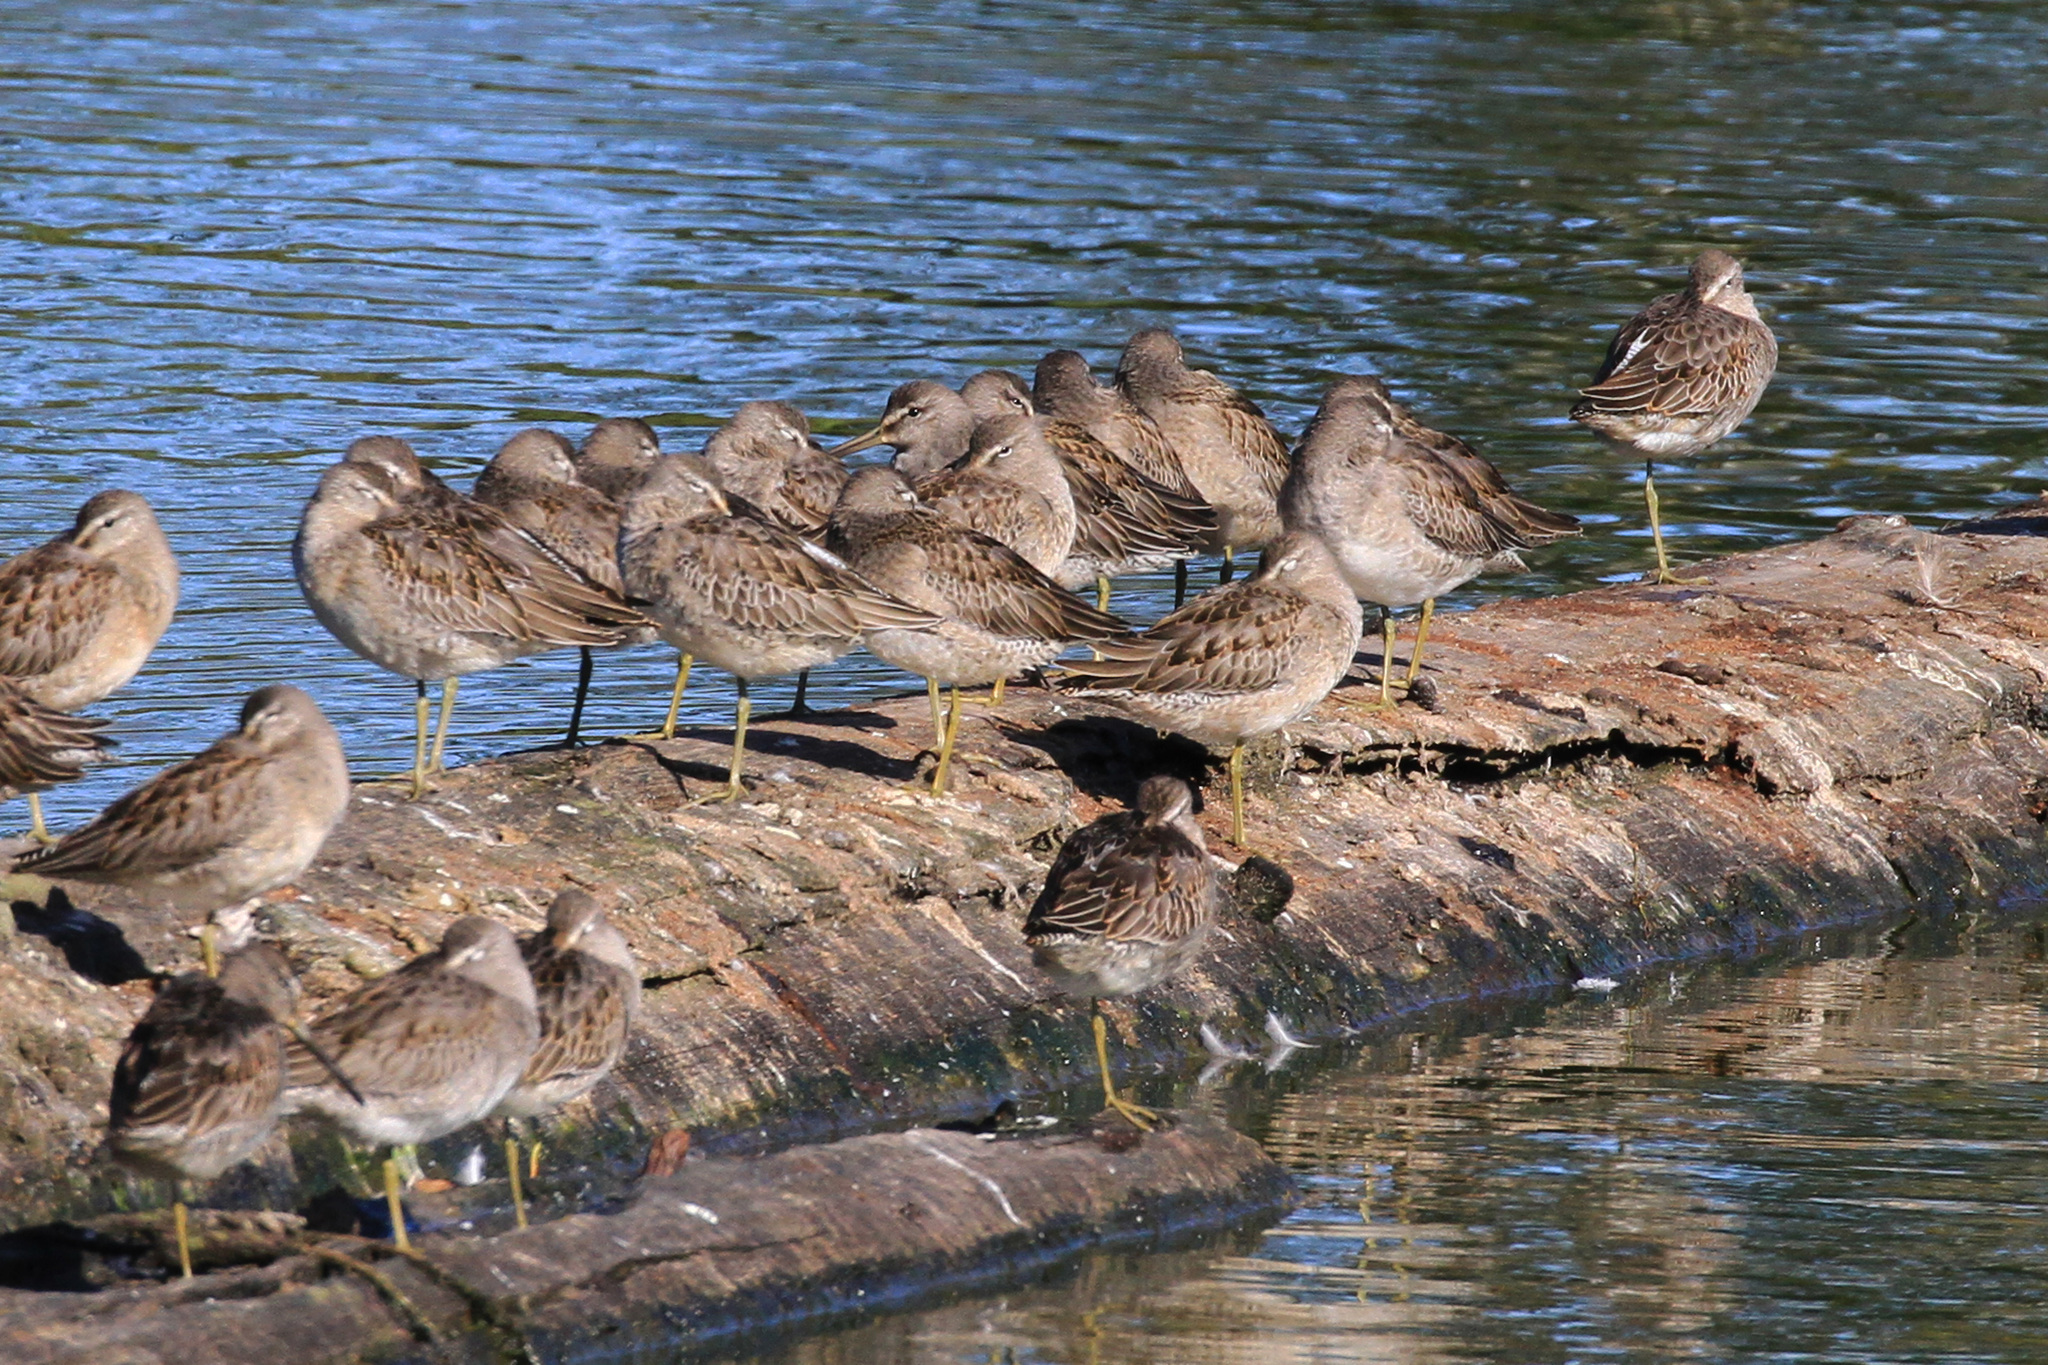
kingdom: Animalia
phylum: Chordata
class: Aves
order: Charadriiformes
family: Scolopacidae
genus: Limnodromus
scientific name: Limnodromus scolopaceus
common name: Long-billed dowitcher
